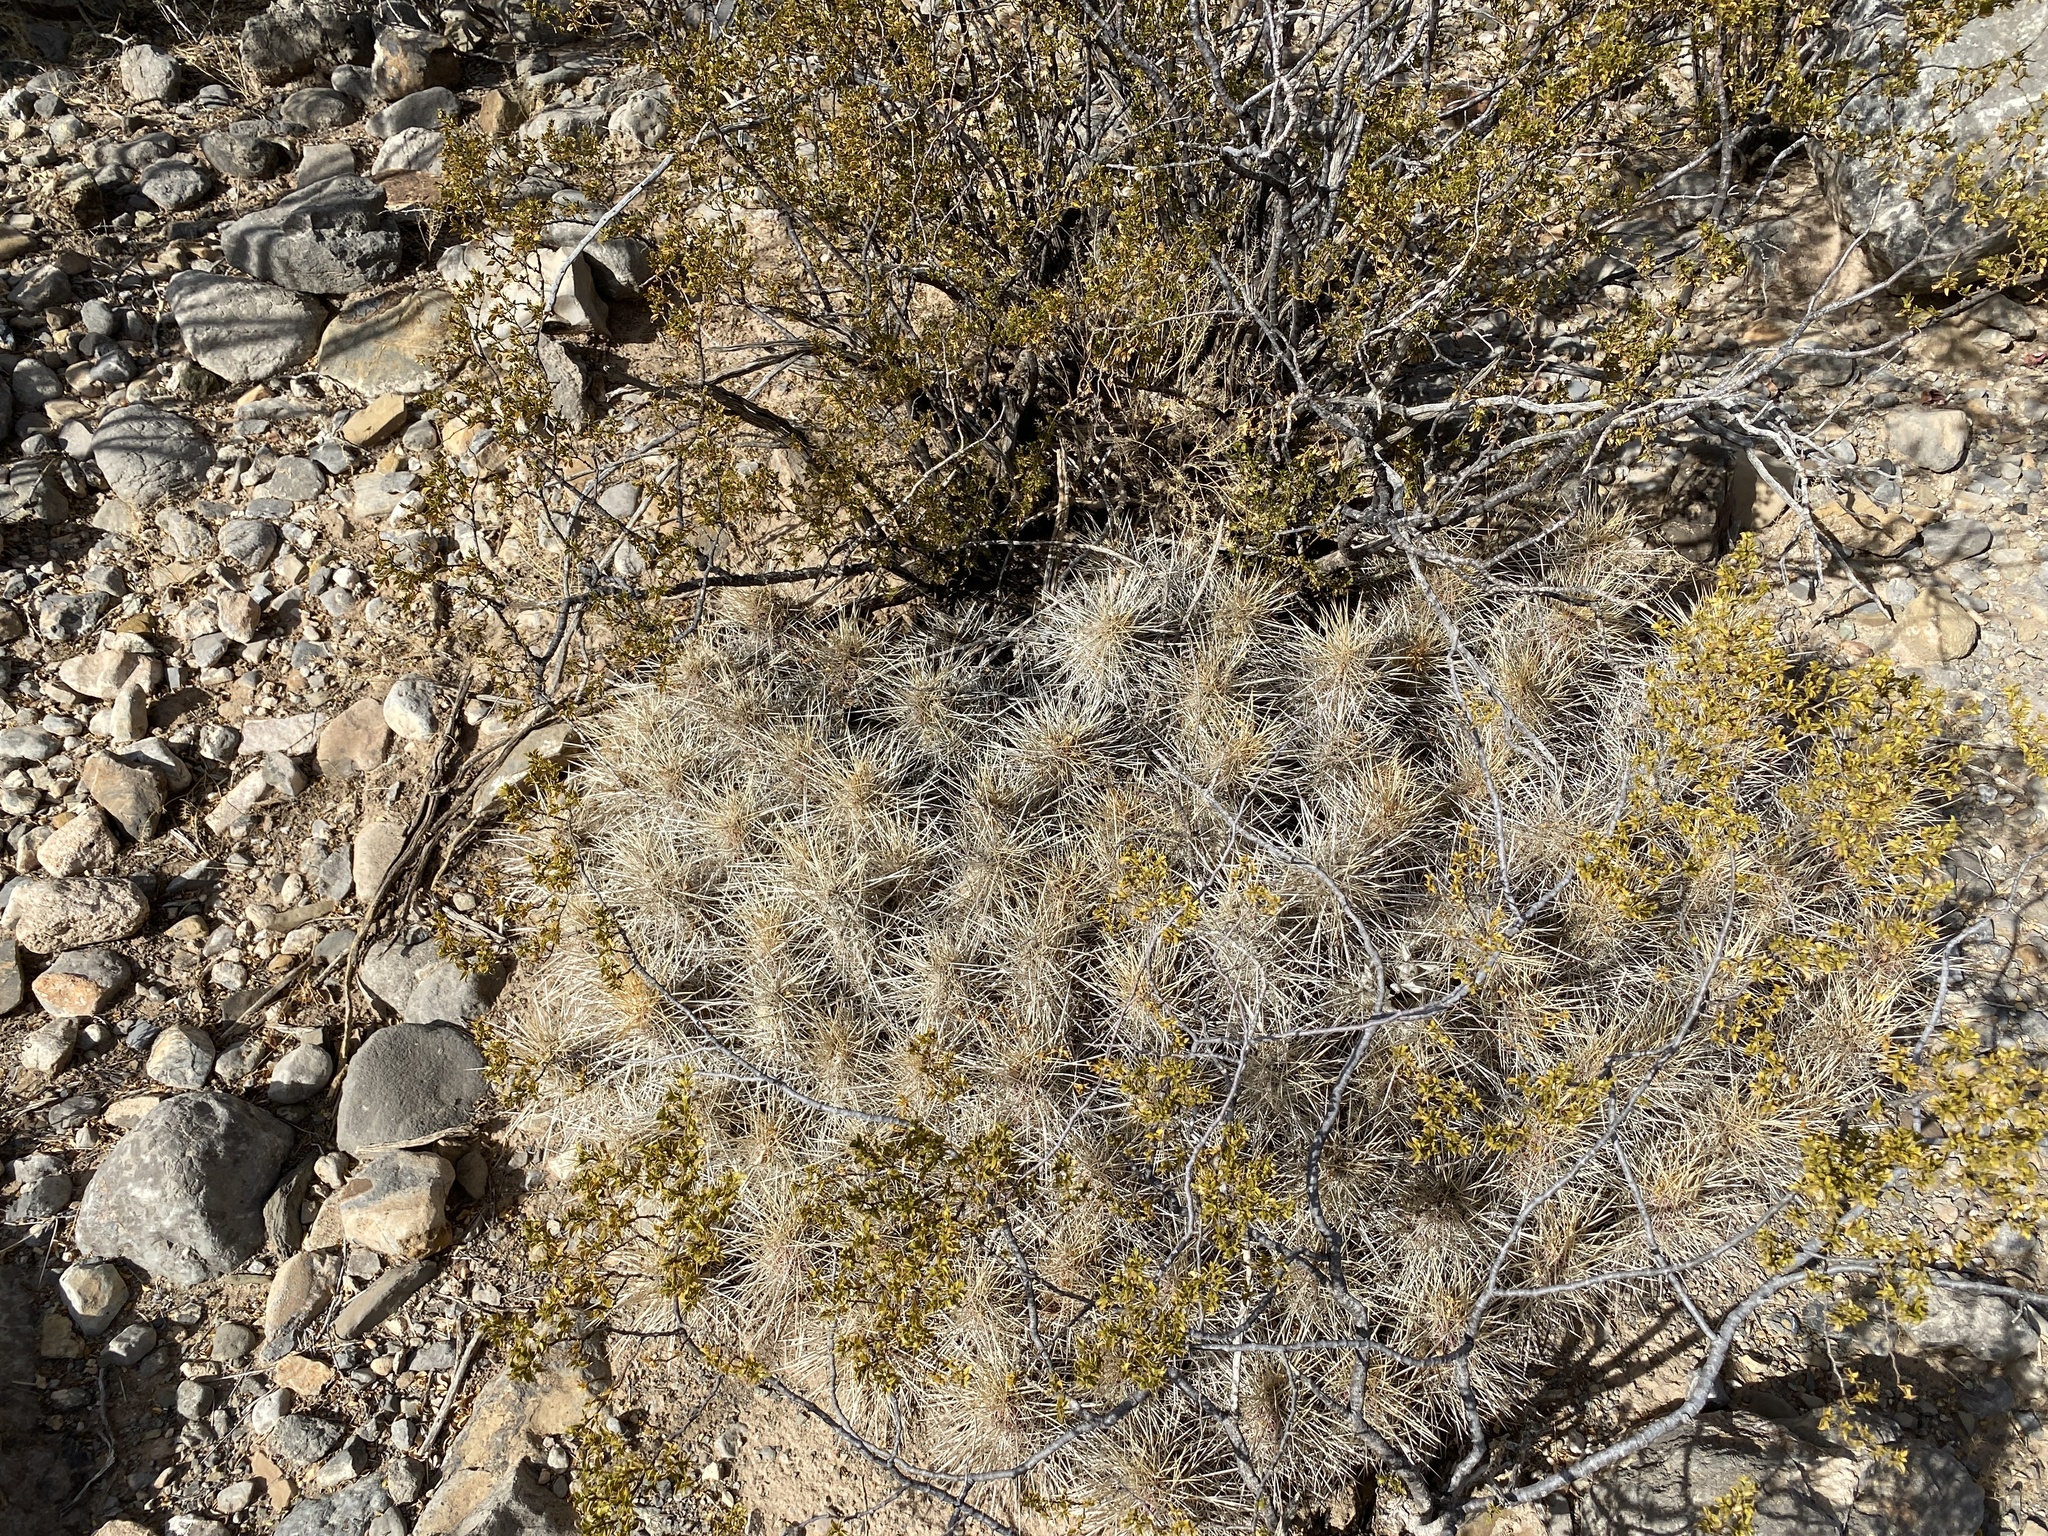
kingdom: Plantae
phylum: Tracheophyta
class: Magnoliopsida
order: Caryophyllales
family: Cactaceae
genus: Echinocereus
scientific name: Echinocereus stramineus
